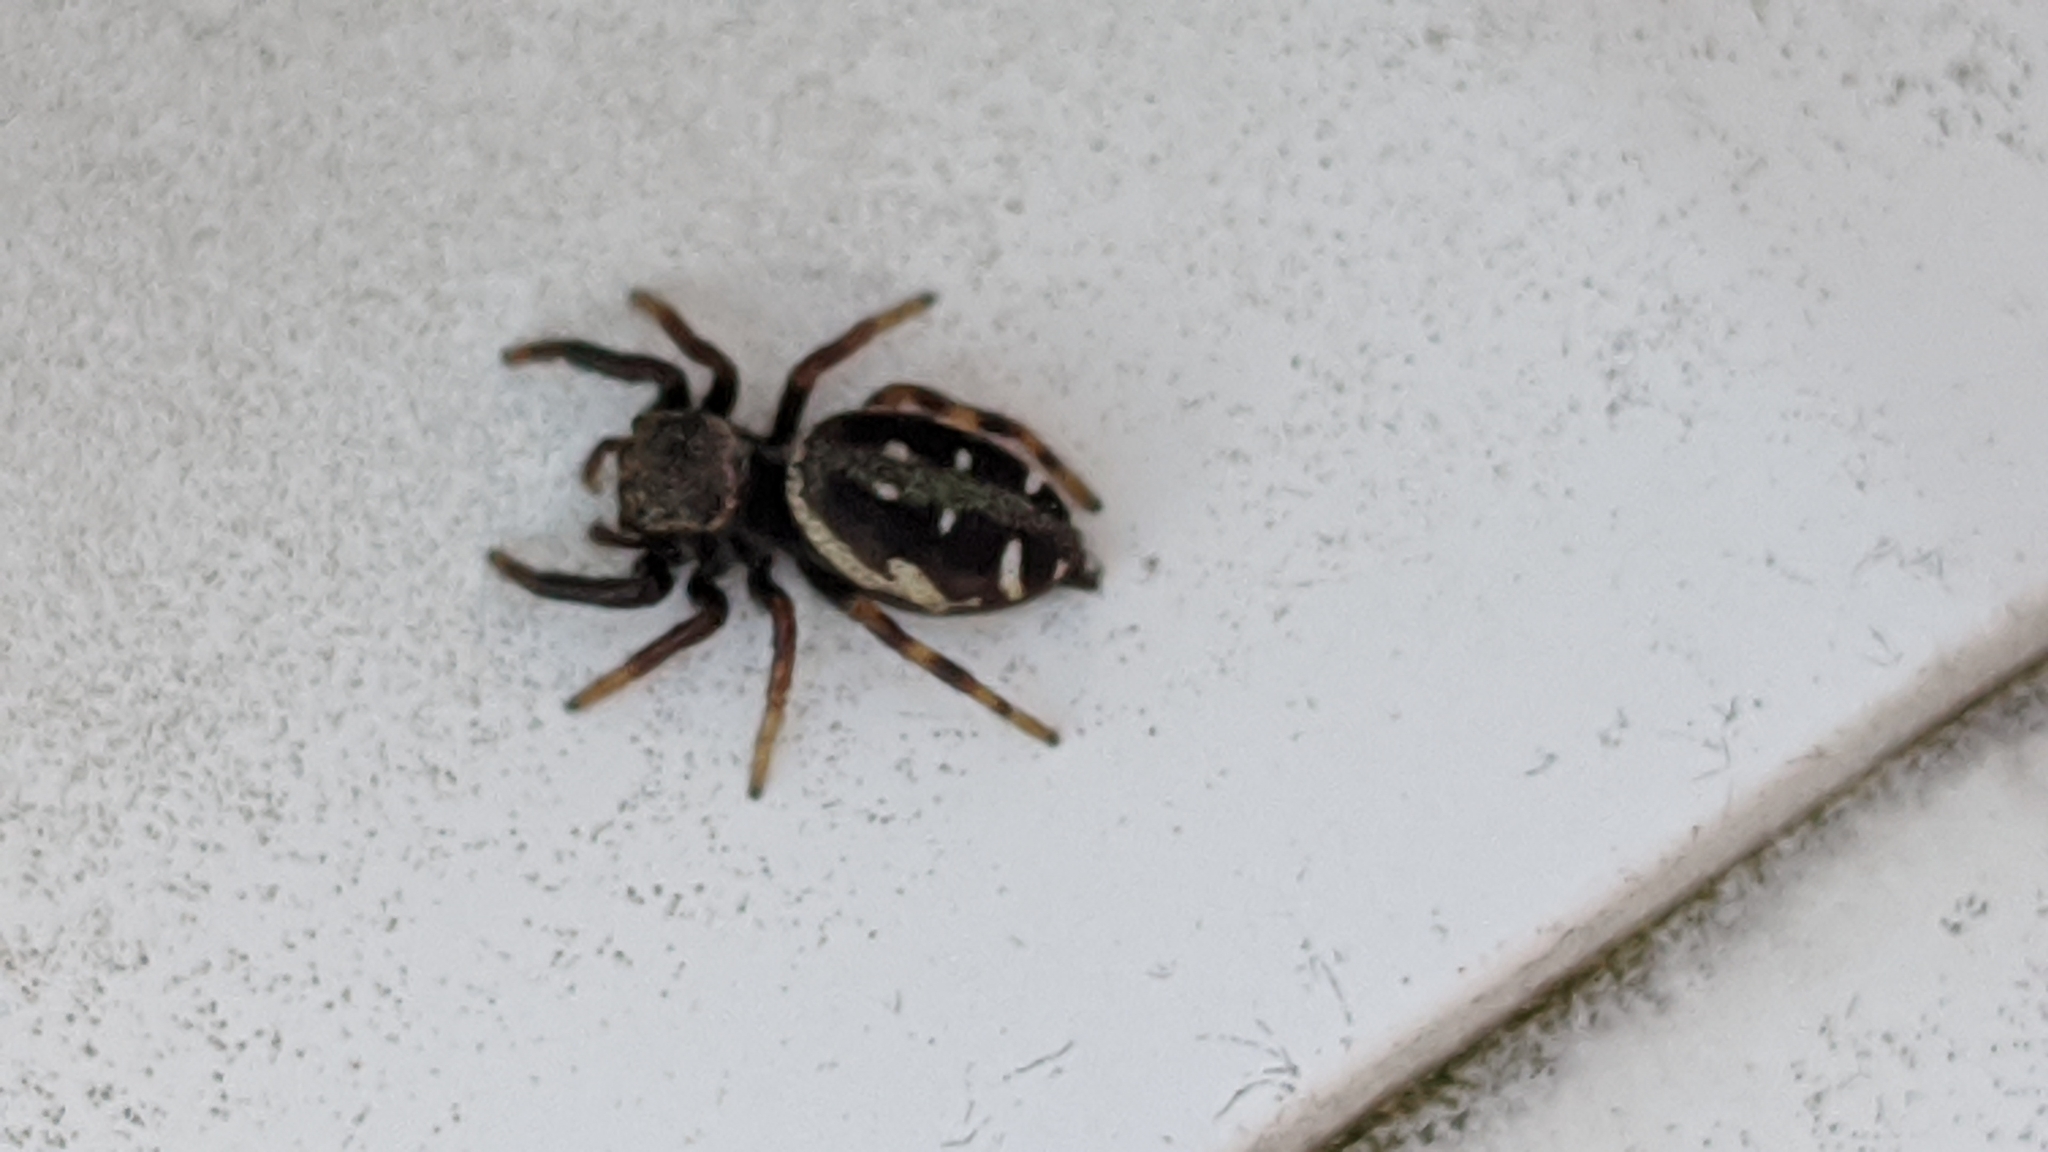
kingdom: Animalia
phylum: Arthropoda
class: Arachnida
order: Araneae
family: Salticidae
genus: Paraphidippus
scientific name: Paraphidippus aurantius
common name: Jumping spiders
